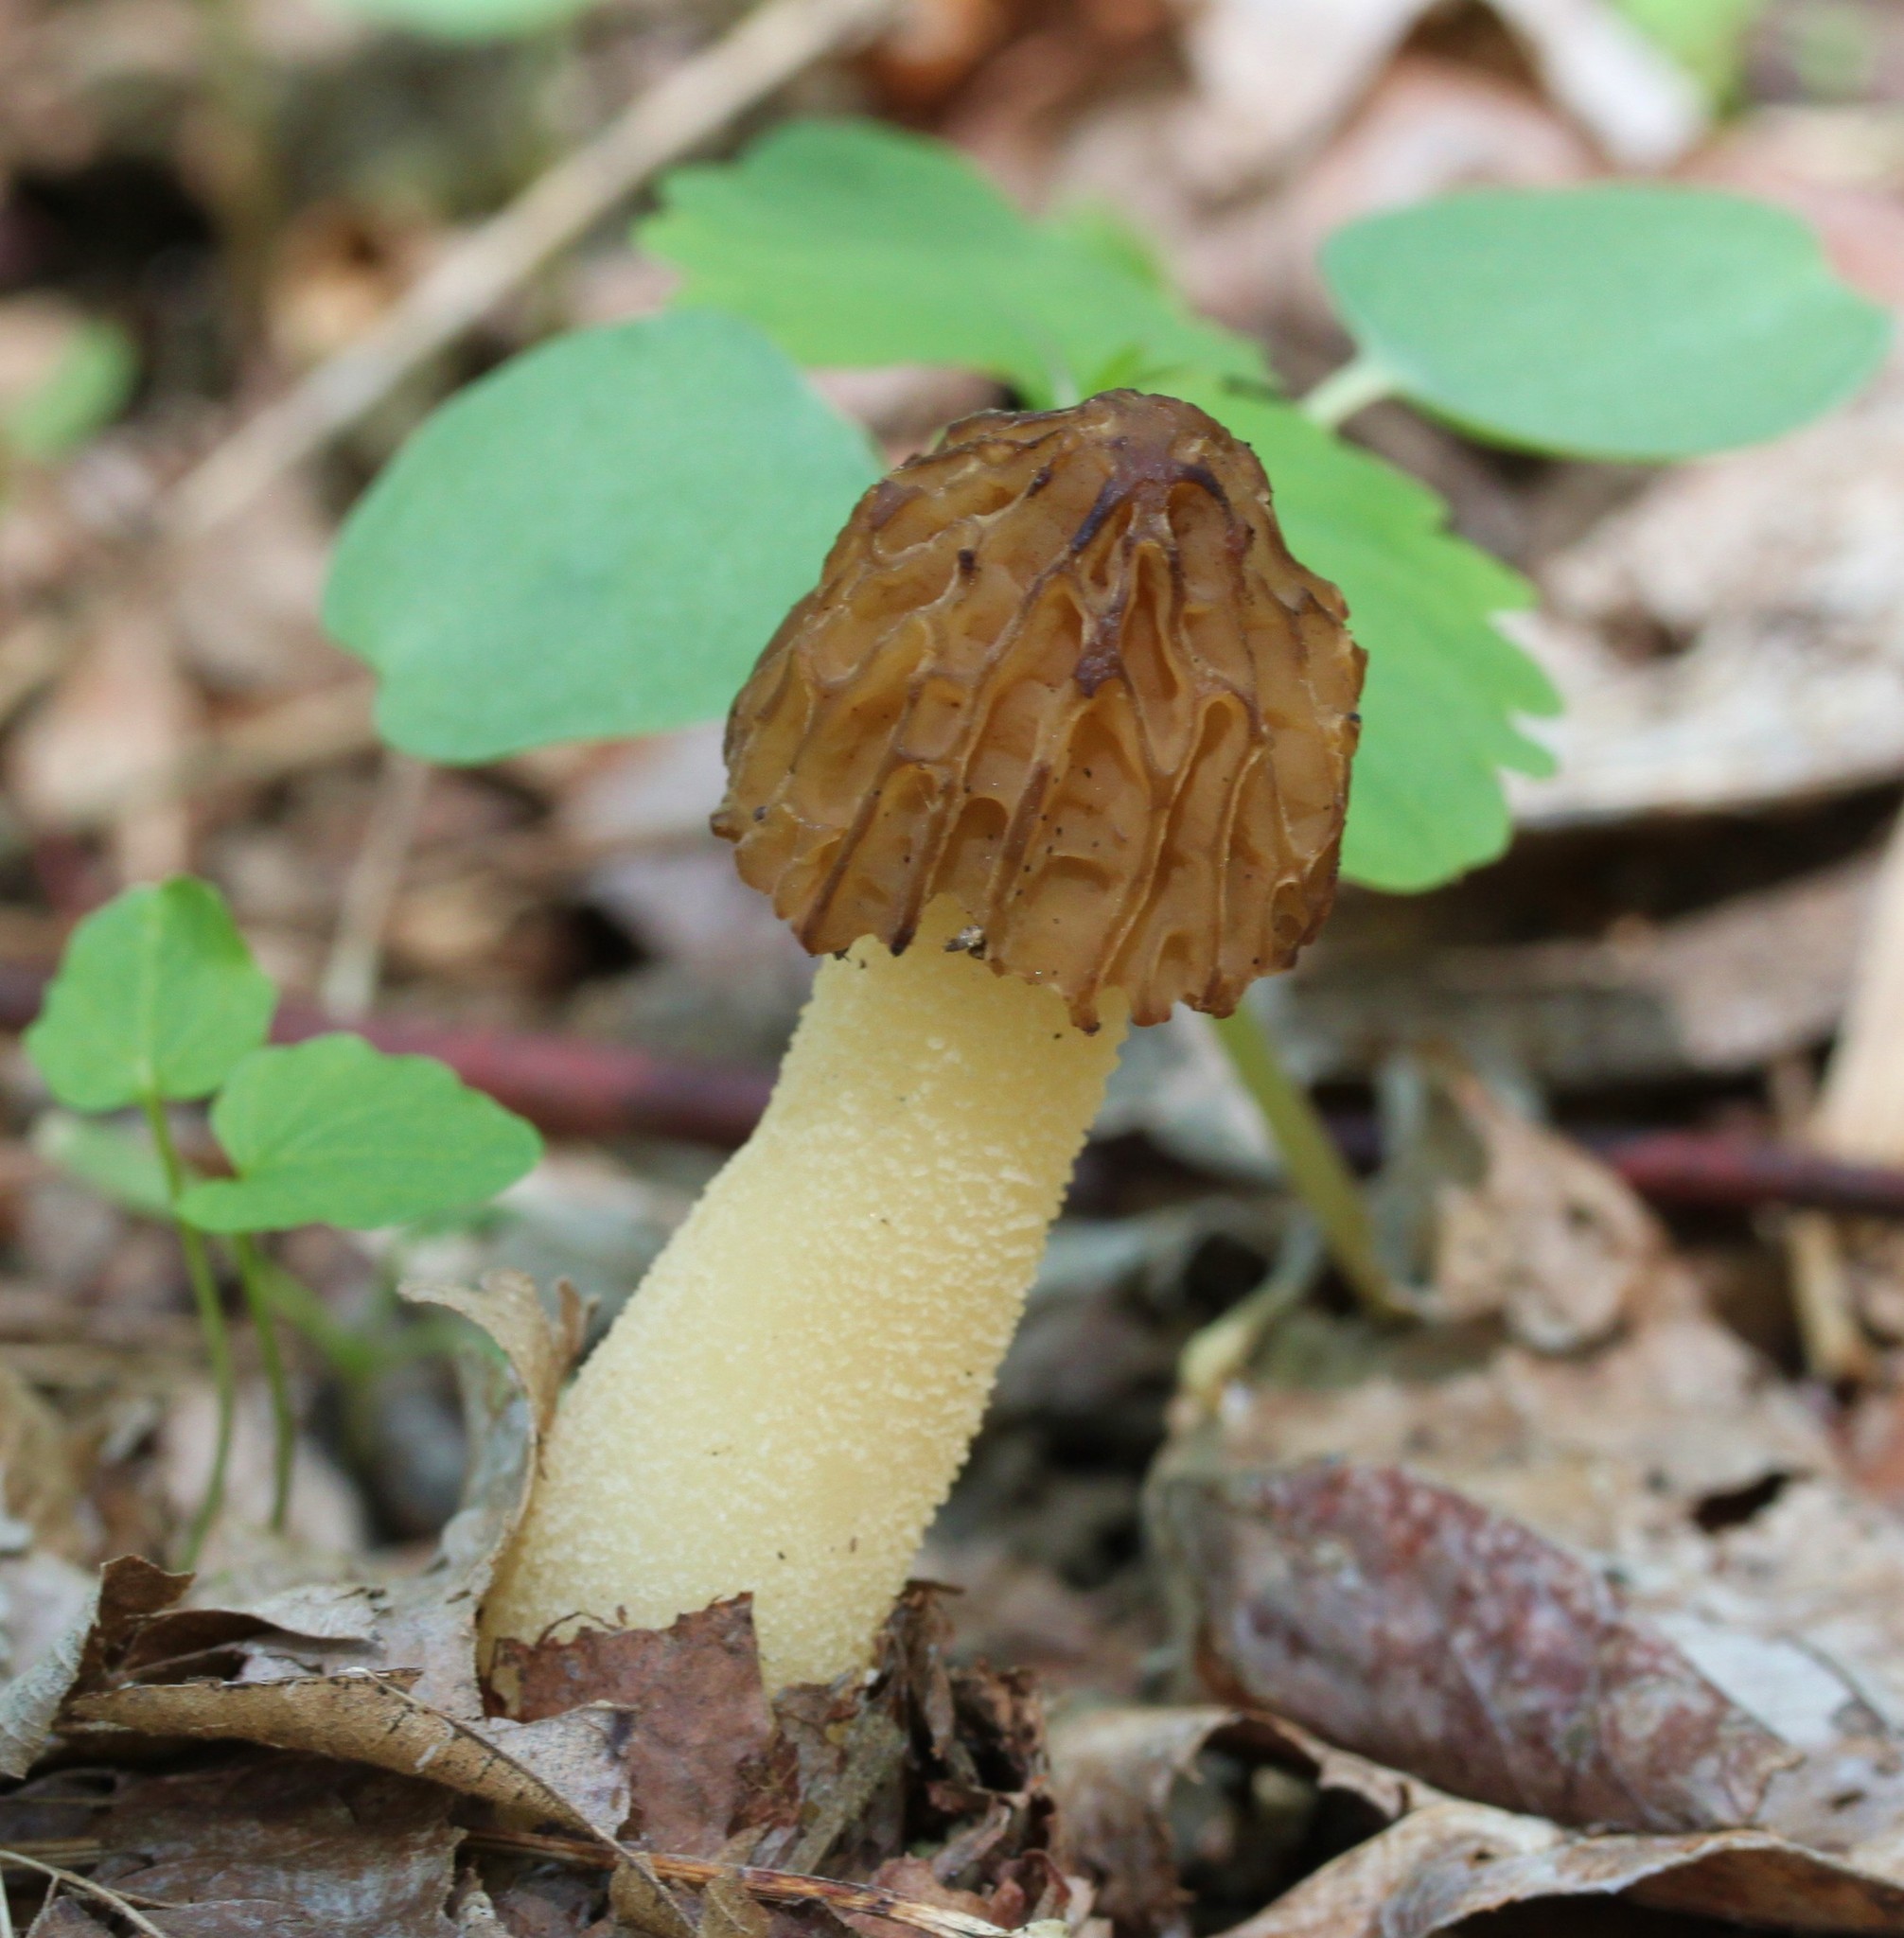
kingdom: Fungi
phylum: Ascomycota
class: Pezizomycetes
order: Pezizales
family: Morchellaceae
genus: Morchella
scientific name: Morchella punctipes
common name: Half-free morel
